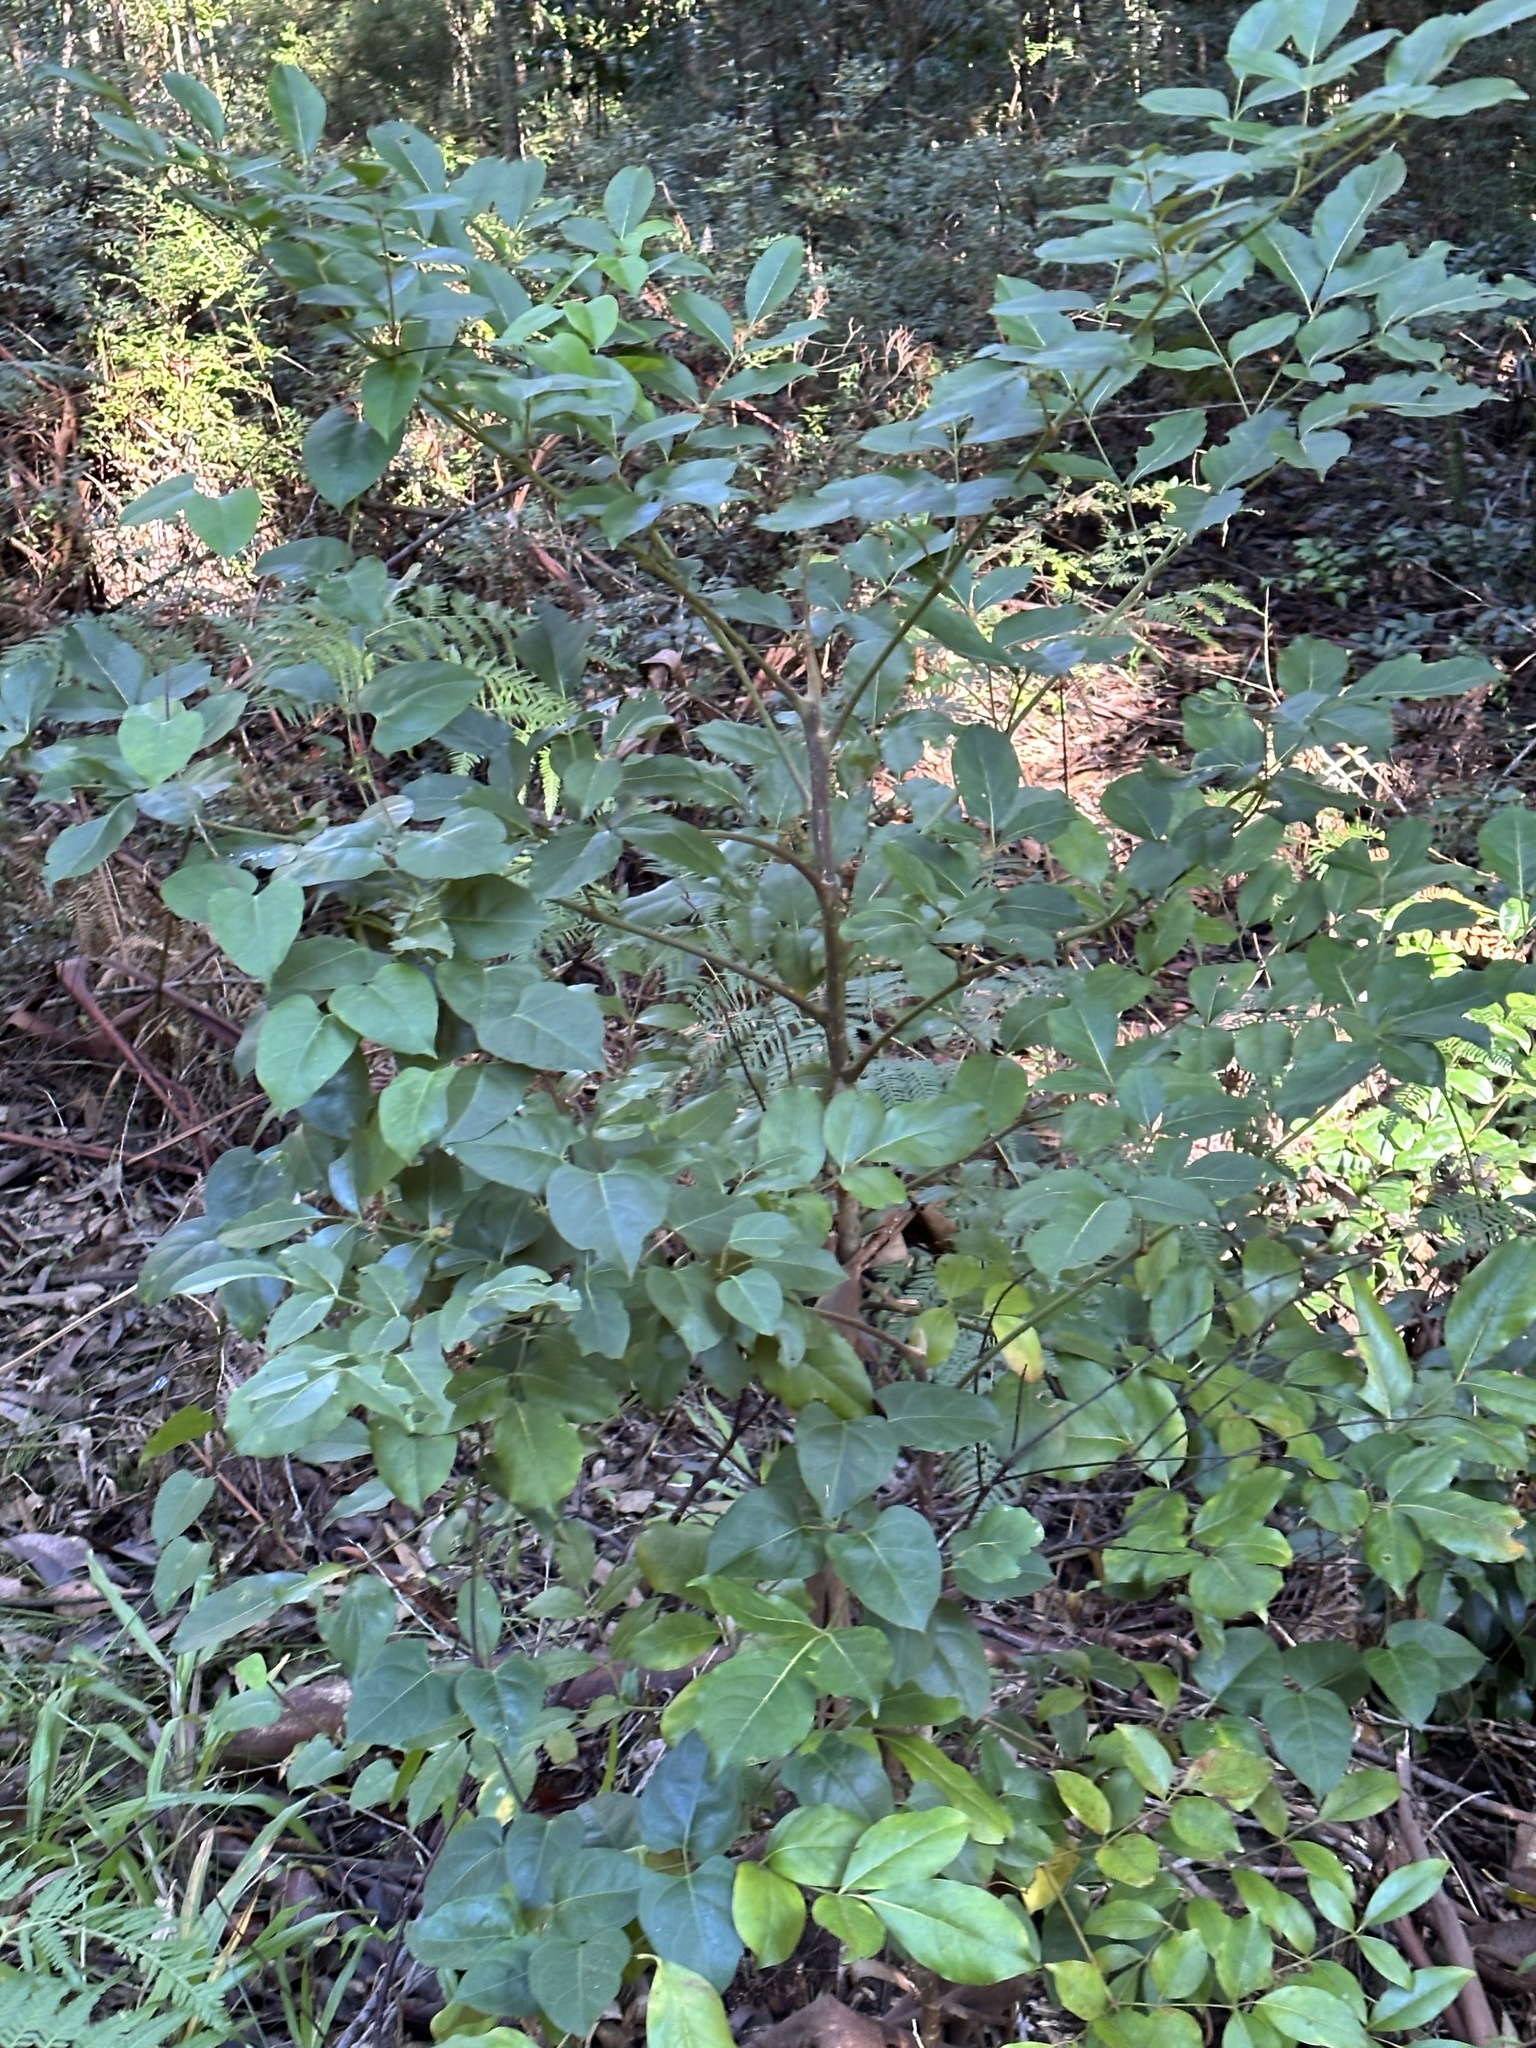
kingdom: Plantae
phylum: Tracheophyta
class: Magnoliopsida
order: Apiales
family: Araliaceae
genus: Polyscias
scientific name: Polyscias elegans
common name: Mowbulan whitewood
